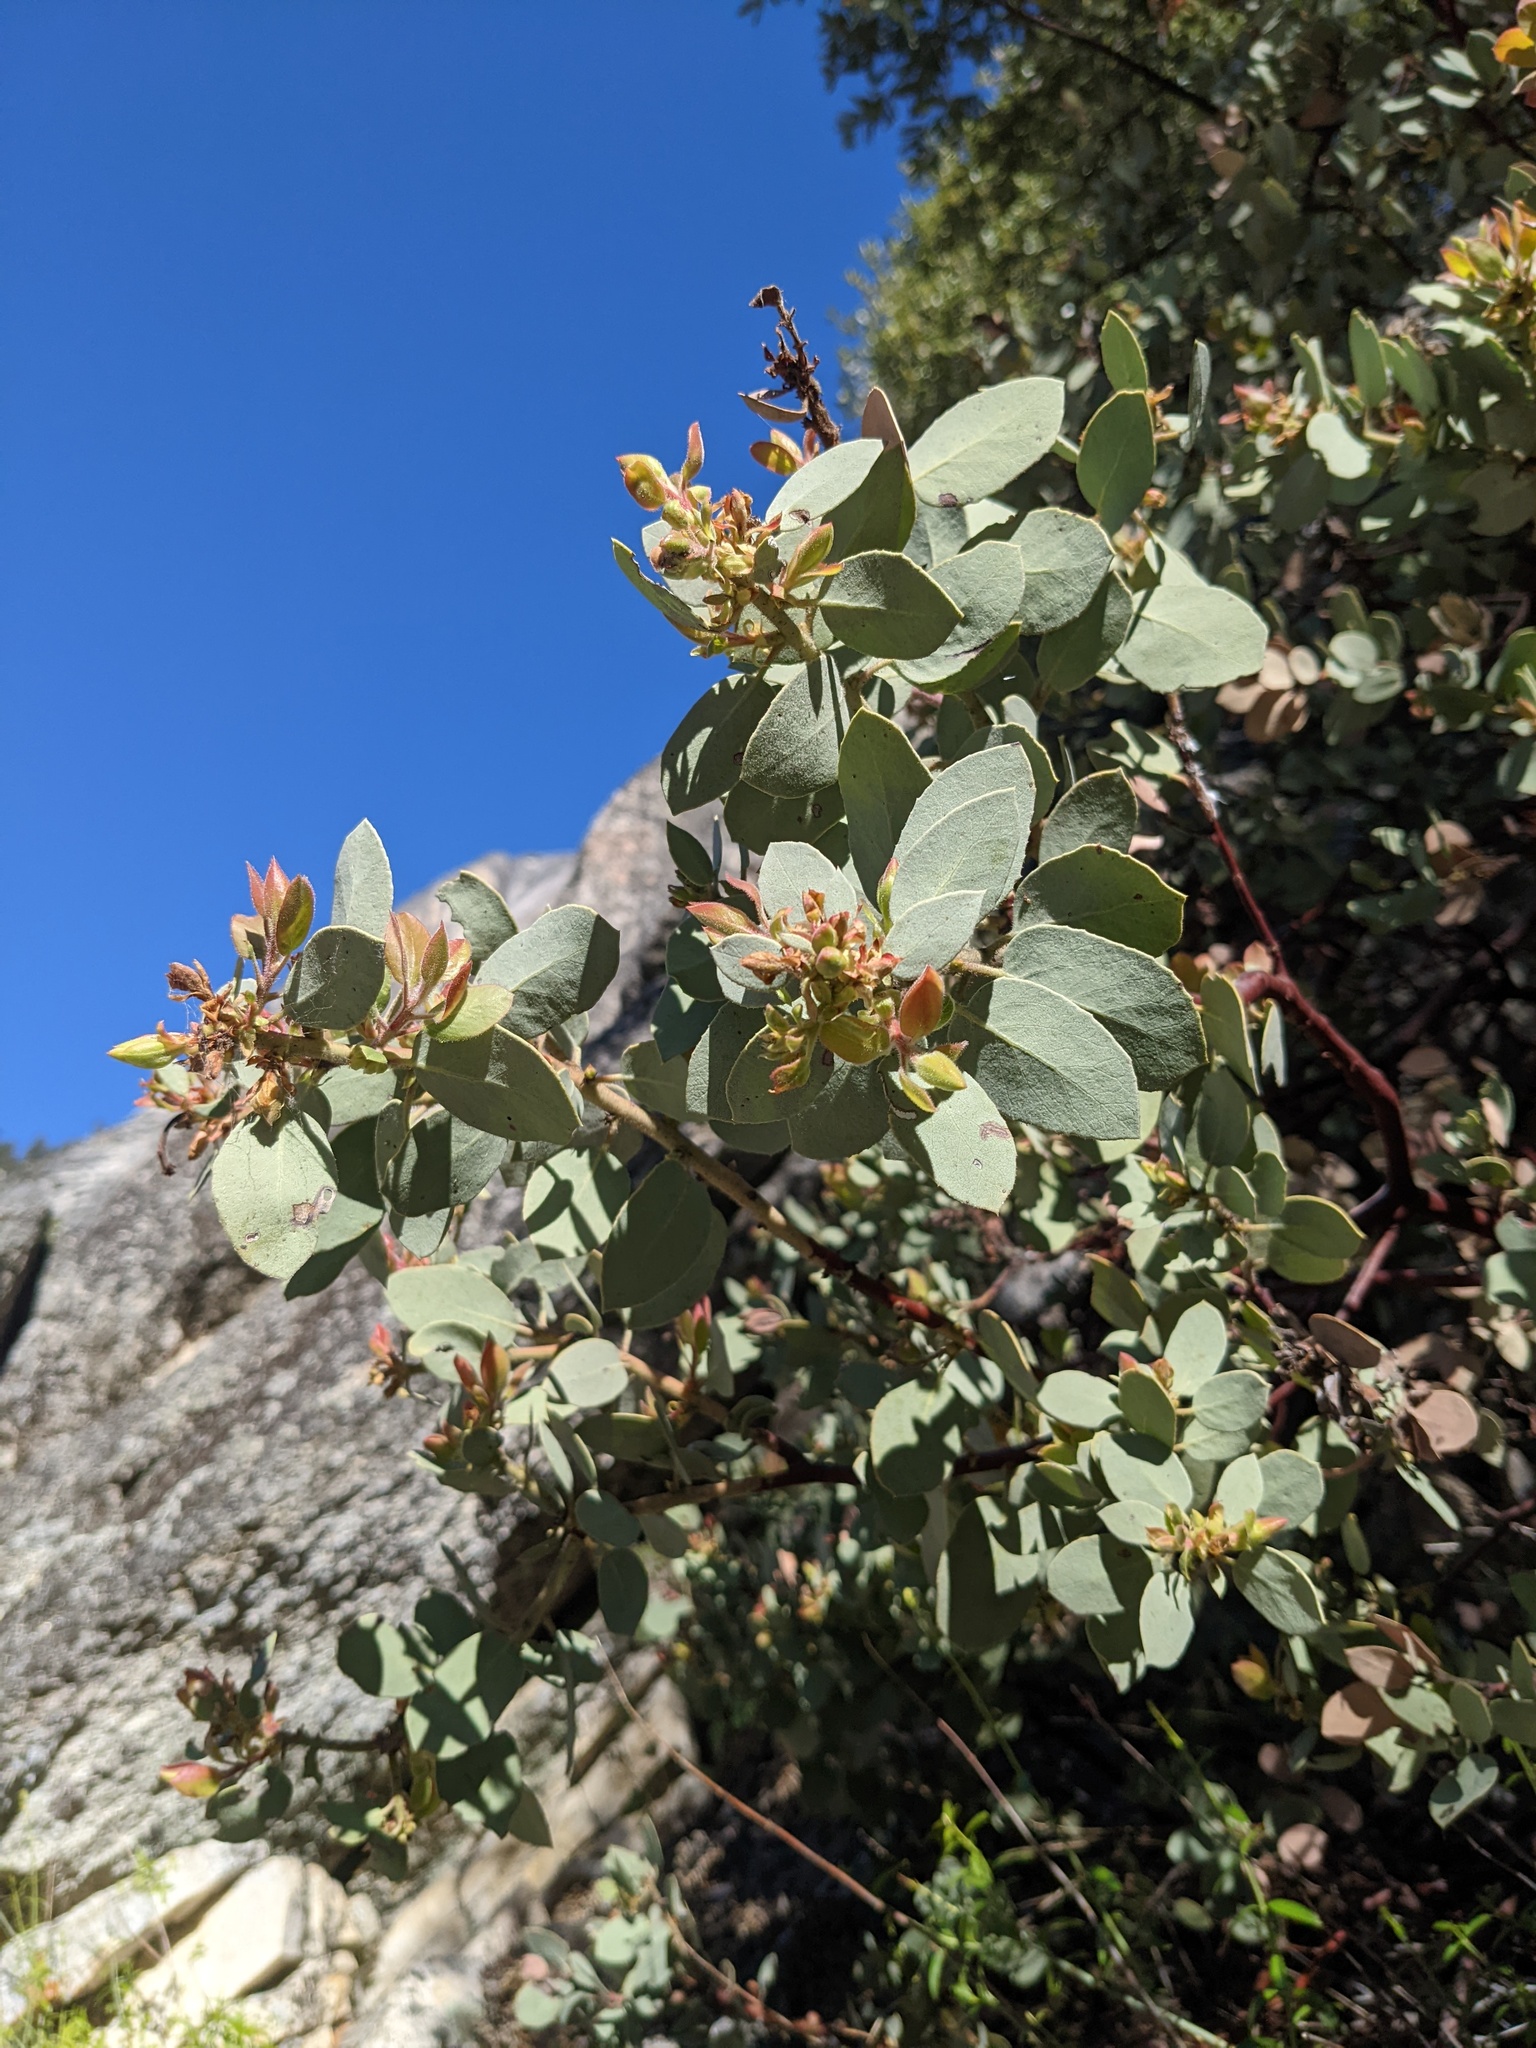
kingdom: Plantae
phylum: Tracheophyta
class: Magnoliopsida
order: Ericales
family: Ericaceae
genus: Arctostaphylos
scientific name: Arctostaphylos viscida
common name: White-leaf manzanita
